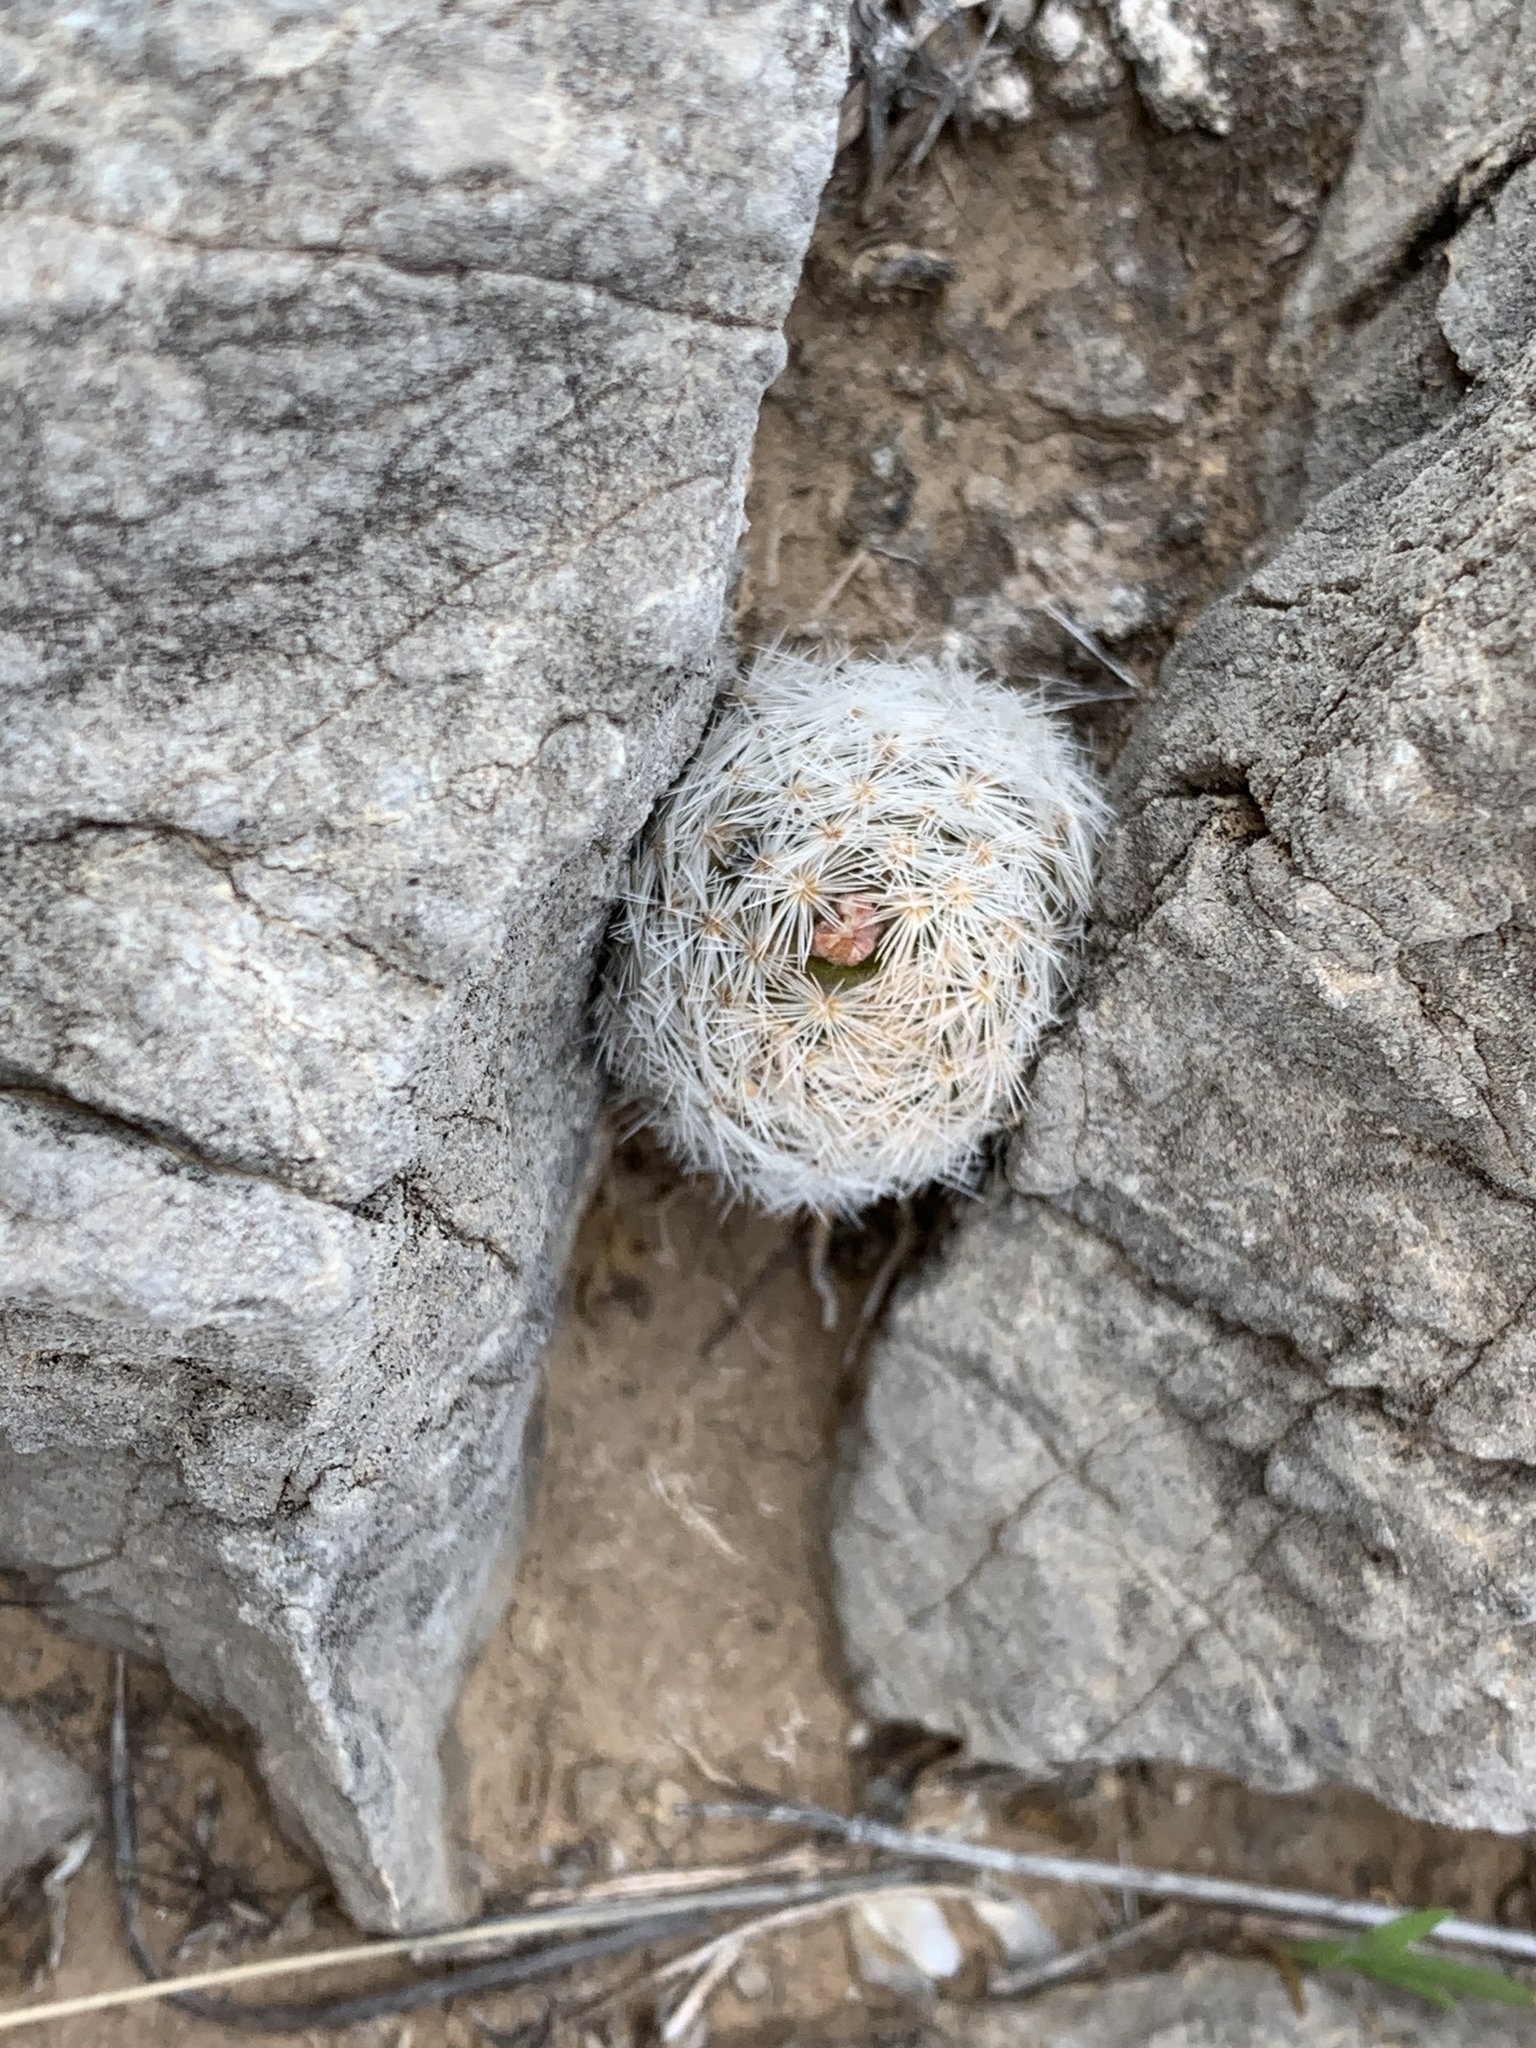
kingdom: Plantae
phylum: Tracheophyta
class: Magnoliopsida
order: Caryophyllales
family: Cactaceae
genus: Mammillaria
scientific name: Mammillaria lasiacantha
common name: Lace-spine nipple cactus
